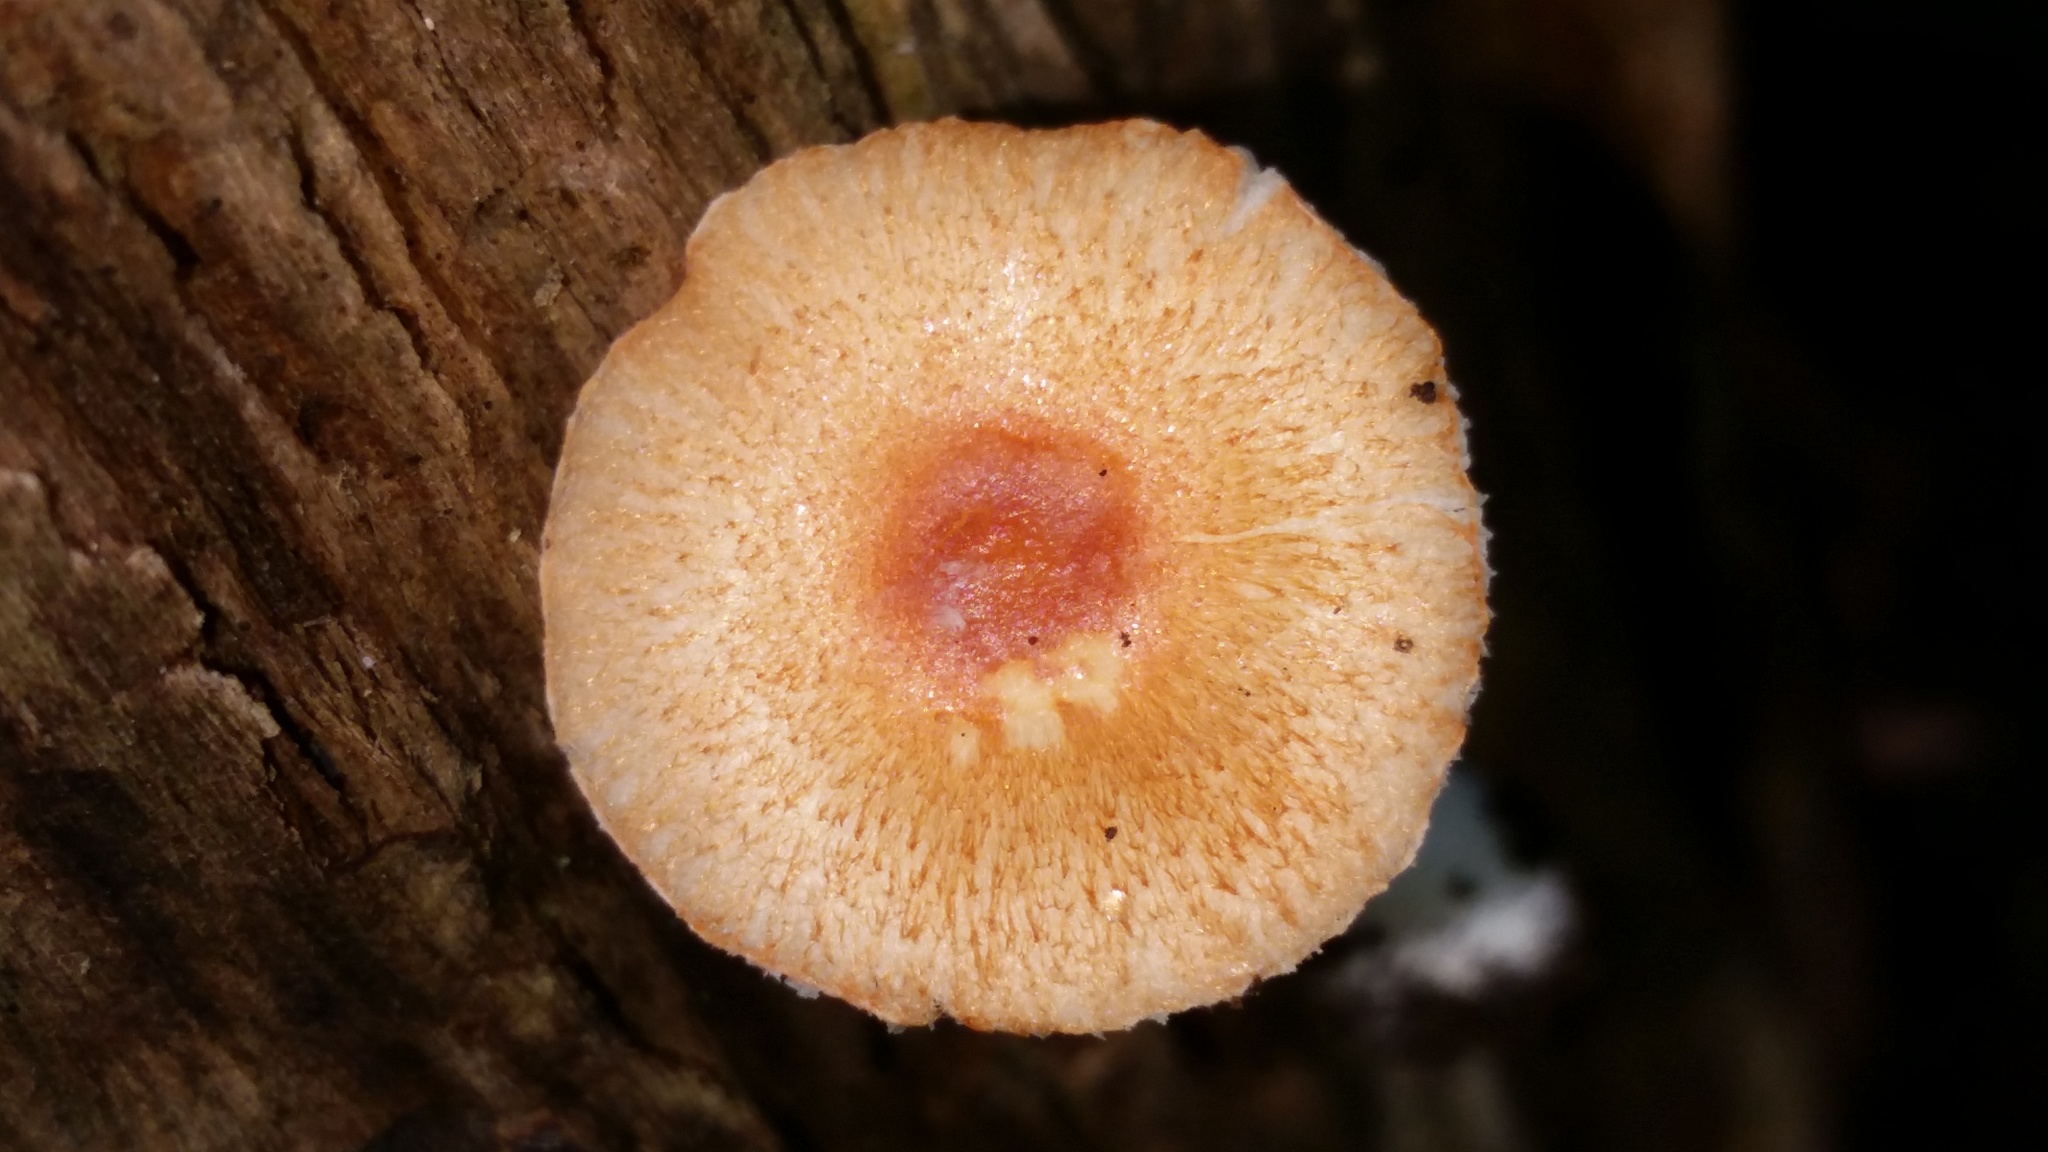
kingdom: Fungi
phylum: Basidiomycota
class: Agaricomycetes
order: Agaricales
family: Agaricaceae
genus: Leucoagaricus
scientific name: Leucoagaricus rubrotinctus
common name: Ruby dapperling
